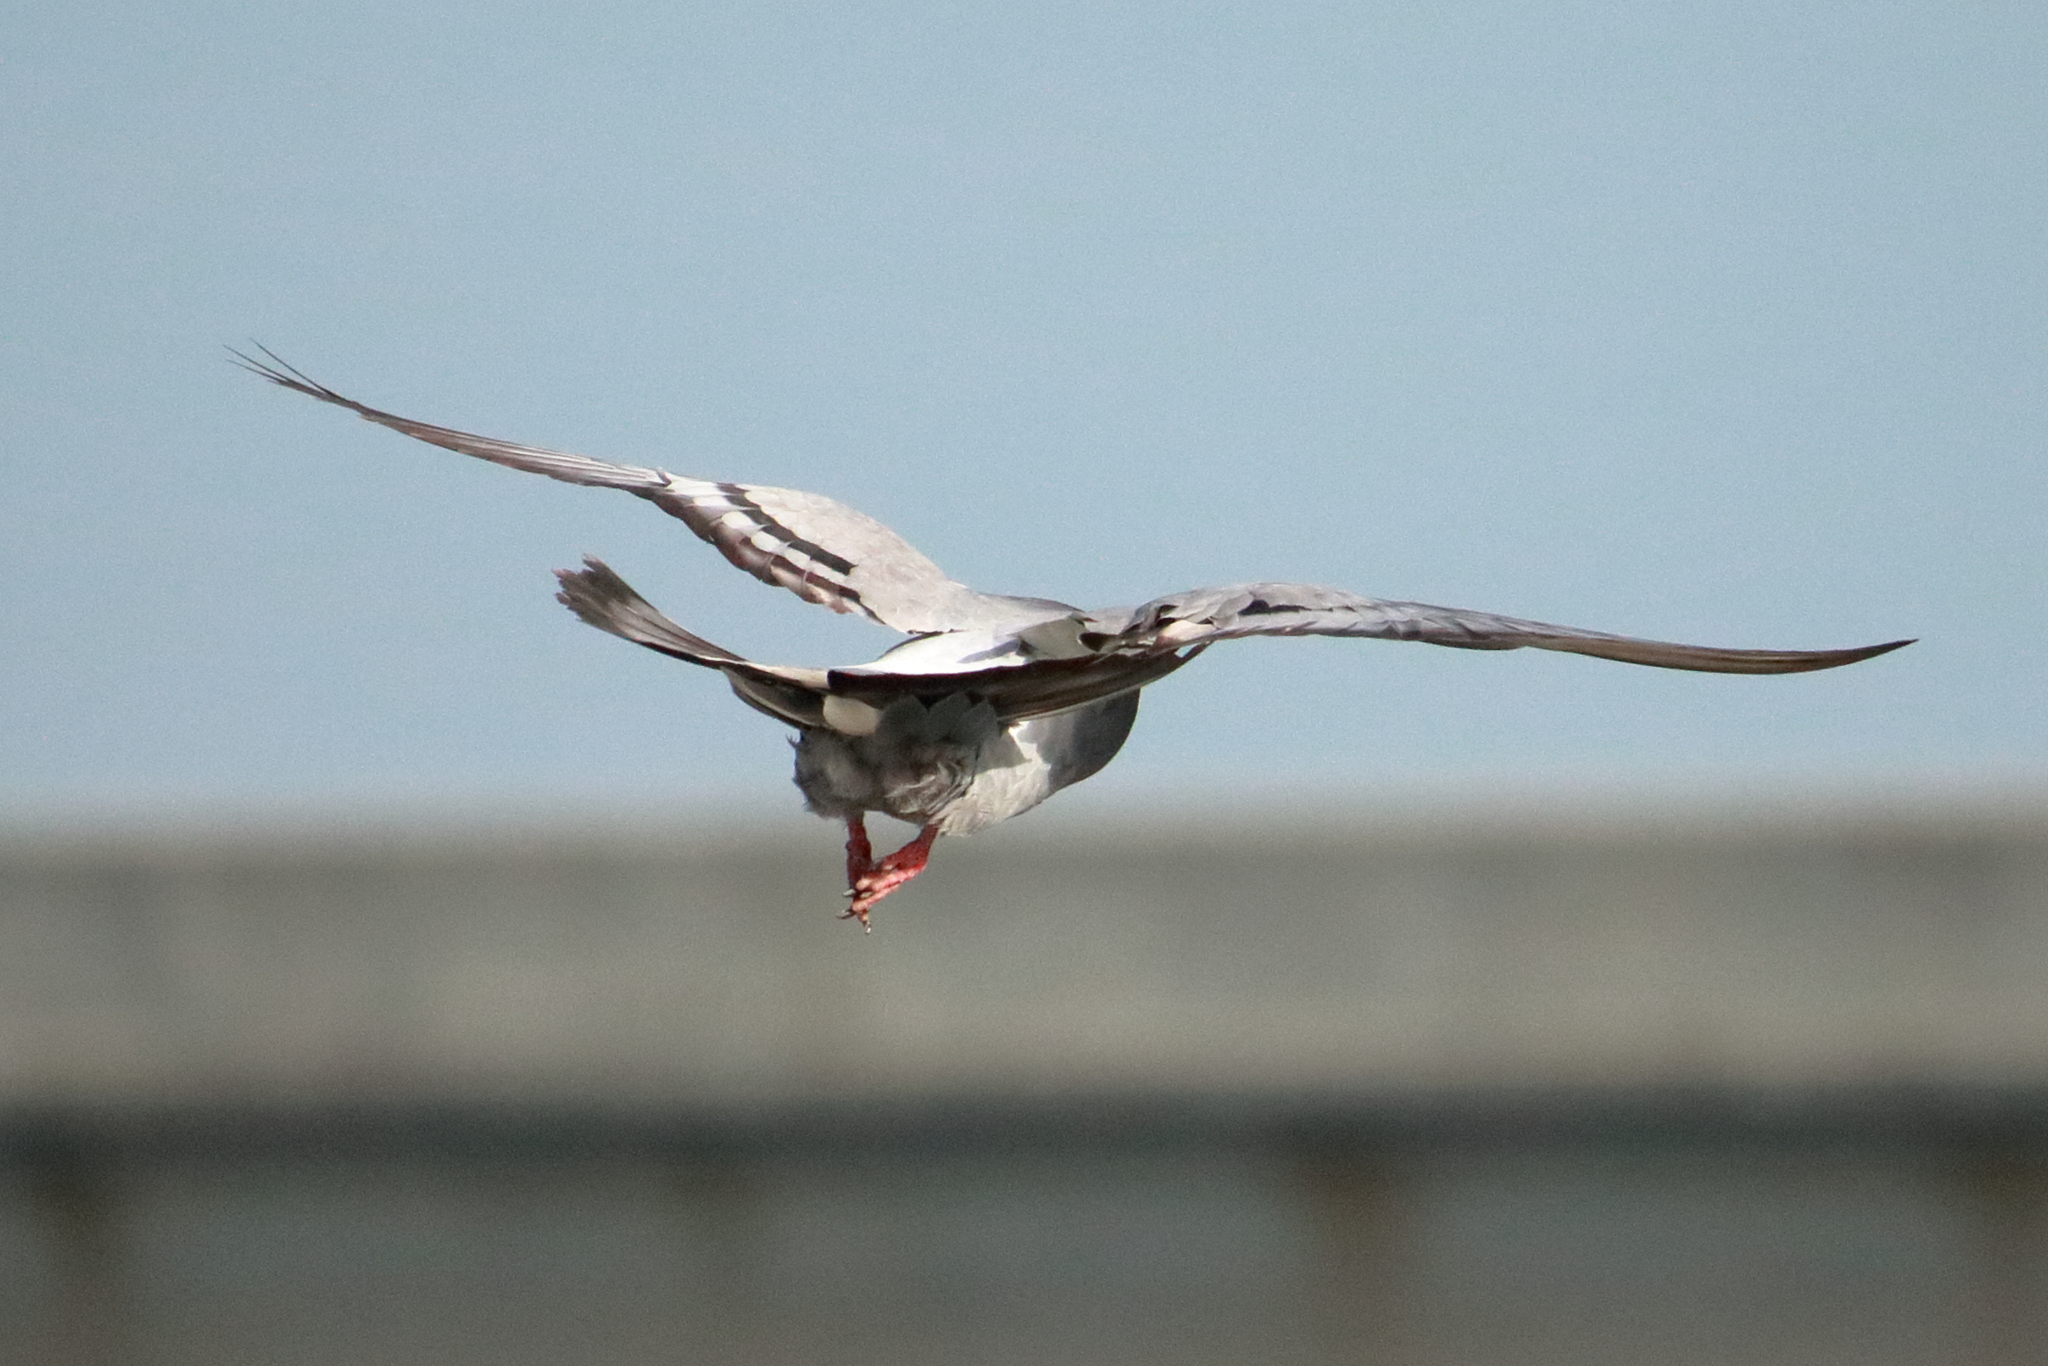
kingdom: Animalia
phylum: Chordata
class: Aves
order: Columbiformes
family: Columbidae
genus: Columba
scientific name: Columba livia
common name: Rock pigeon
